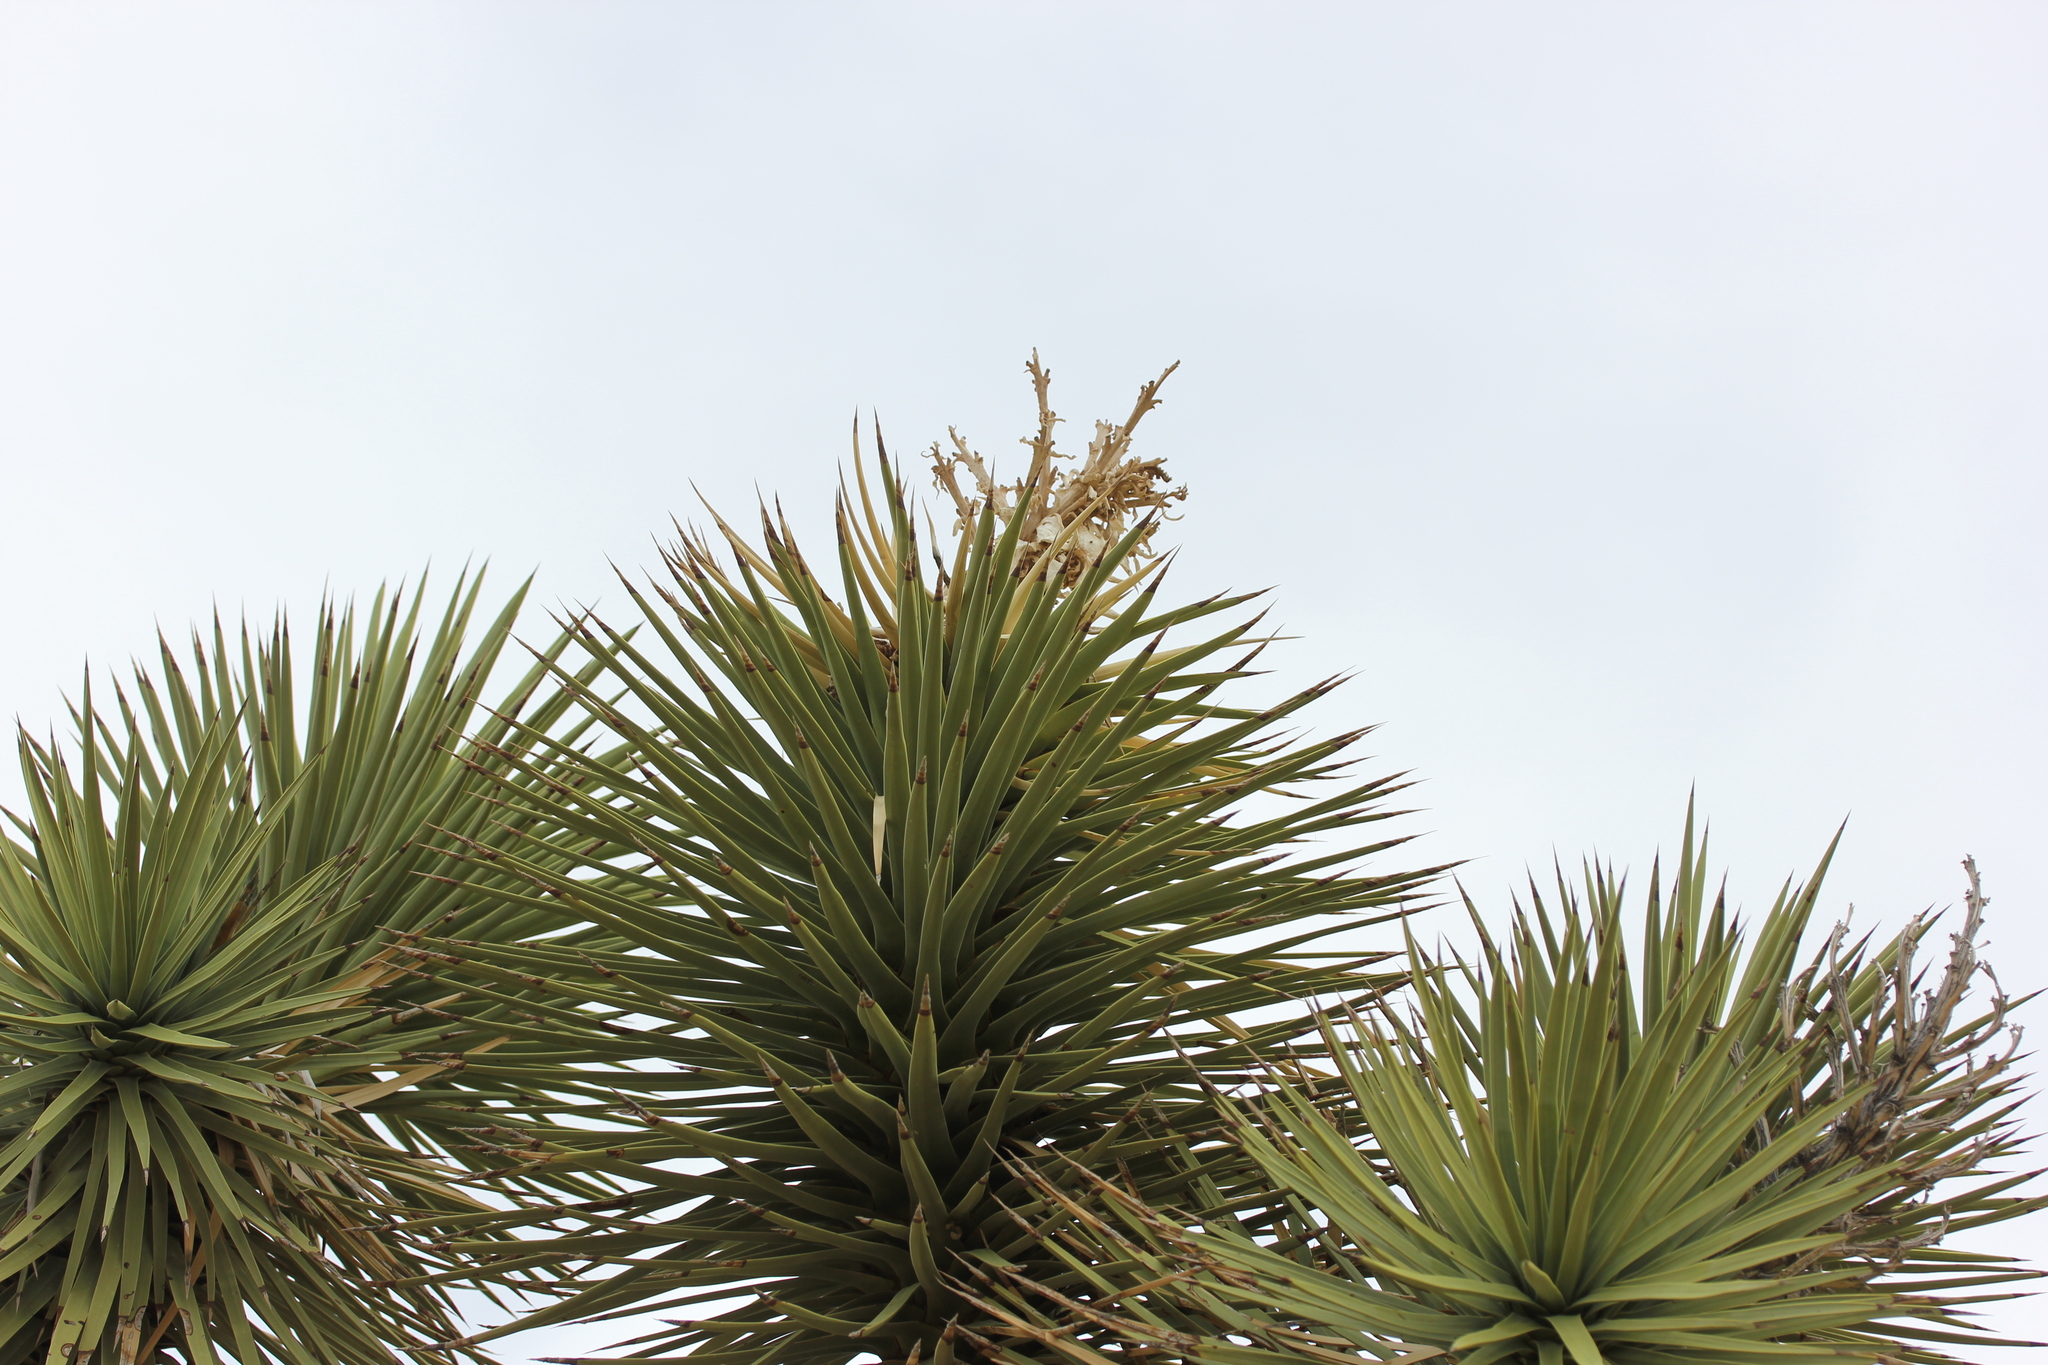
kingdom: Plantae
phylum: Tracheophyta
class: Liliopsida
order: Asparagales
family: Asparagaceae
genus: Yucca
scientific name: Yucca brevifolia
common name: Joshua tree
